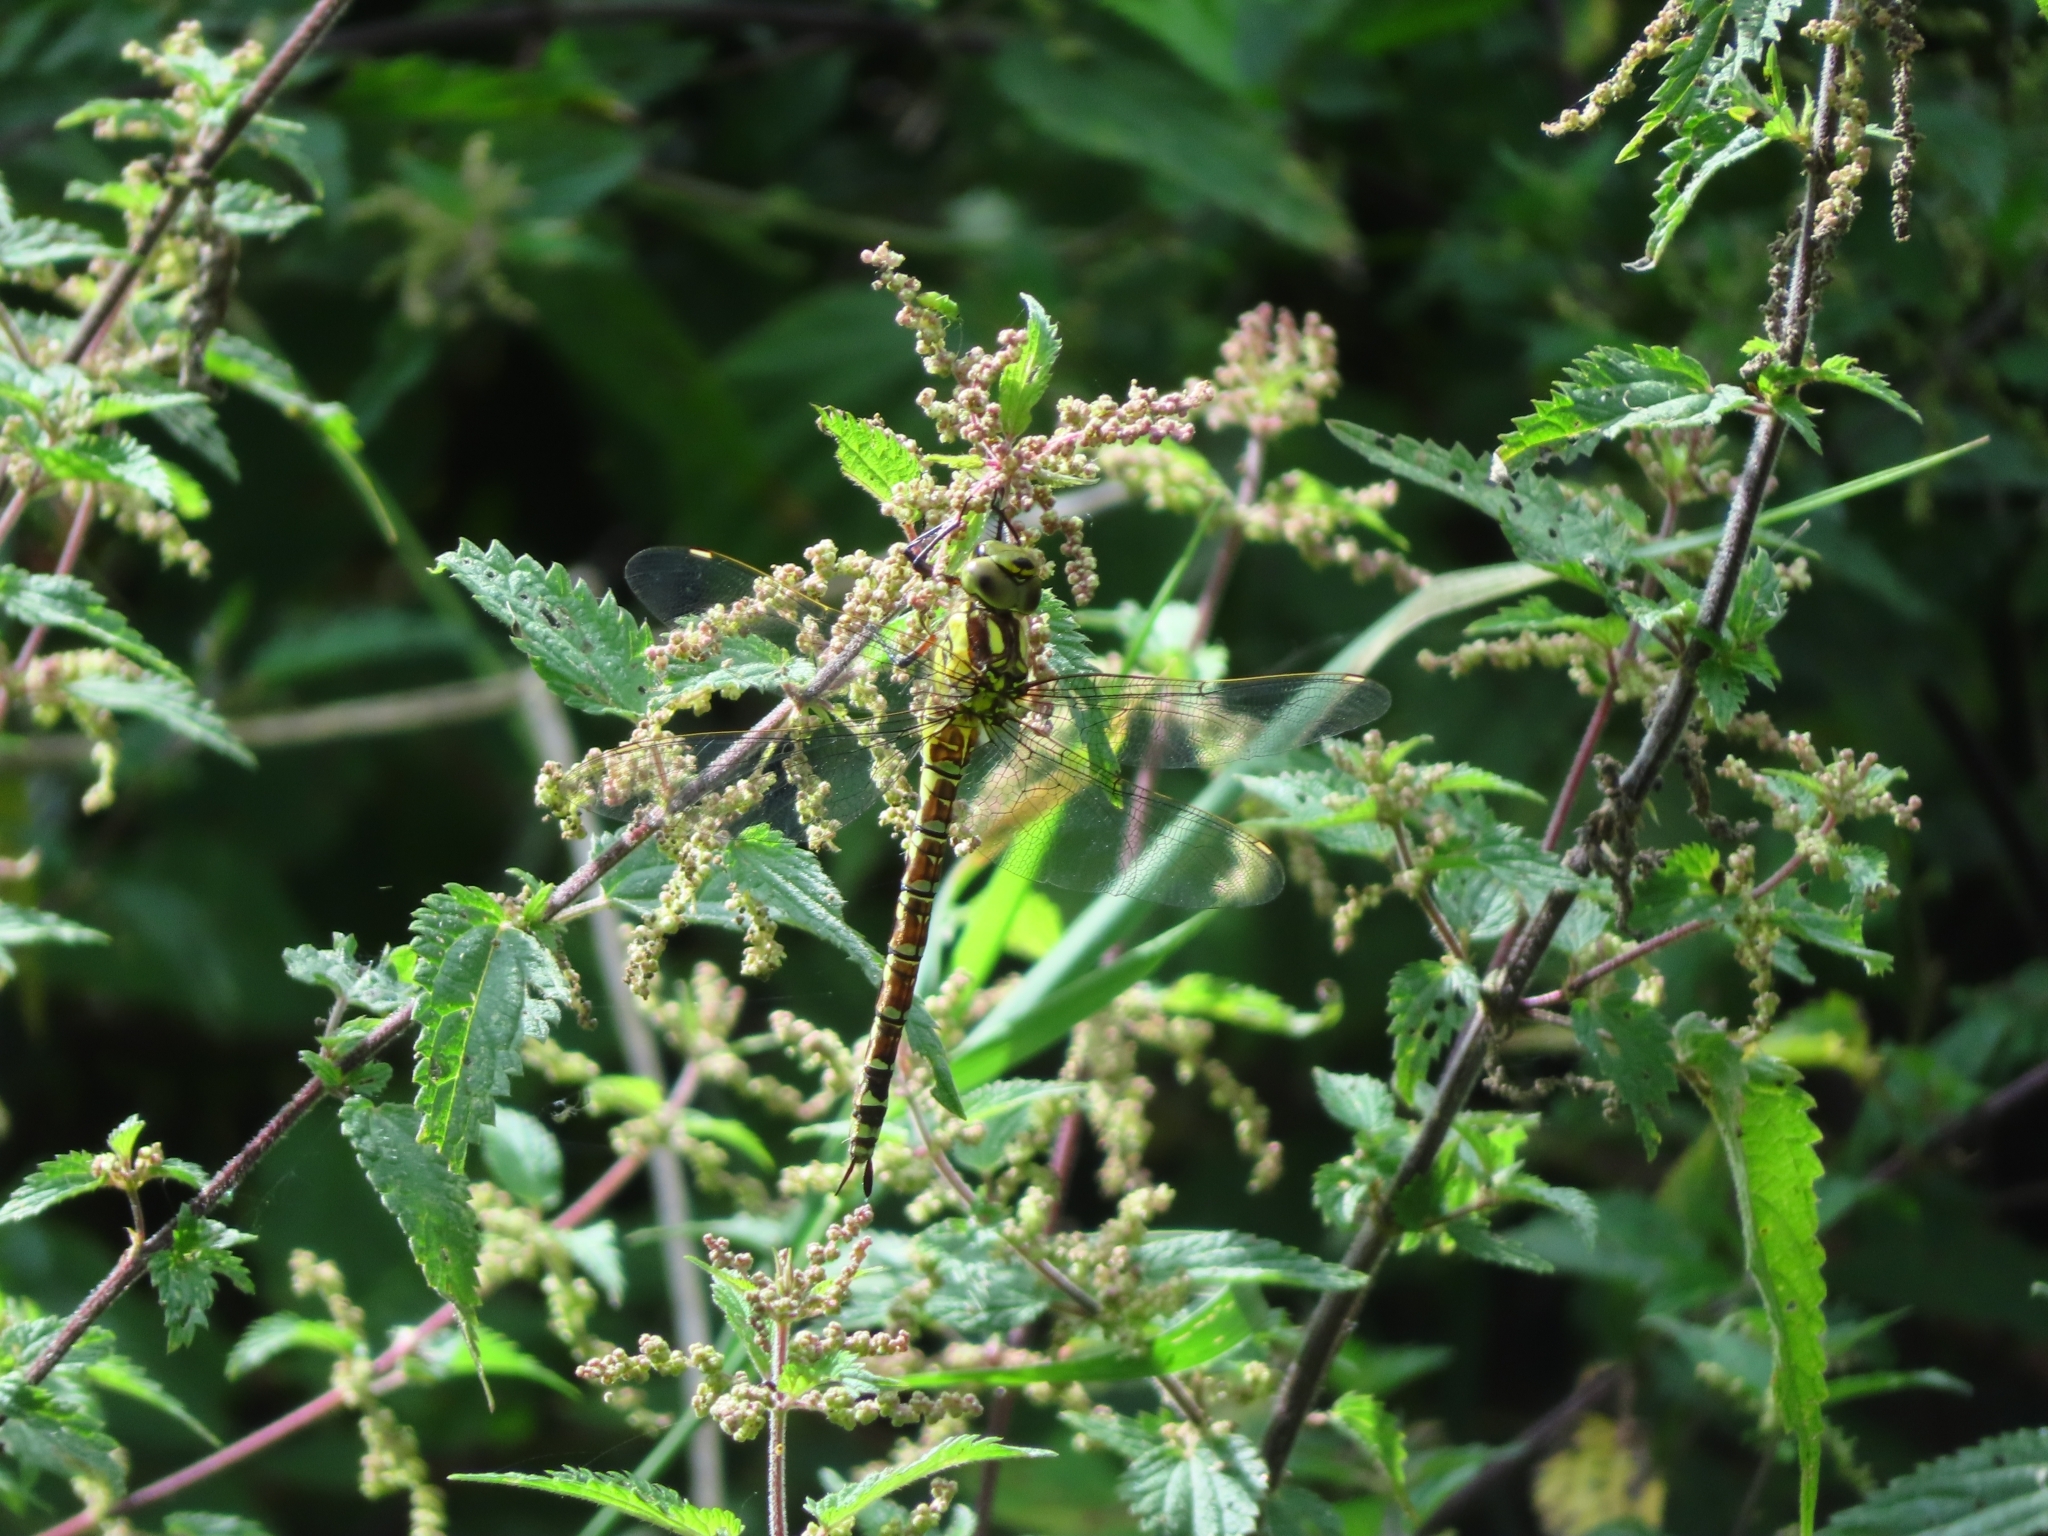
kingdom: Animalia
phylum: Arthropoda
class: Insecta
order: Odonata
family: Aeshnidae
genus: Aeshna
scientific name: Aeshna cyanea
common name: Southern hawker
